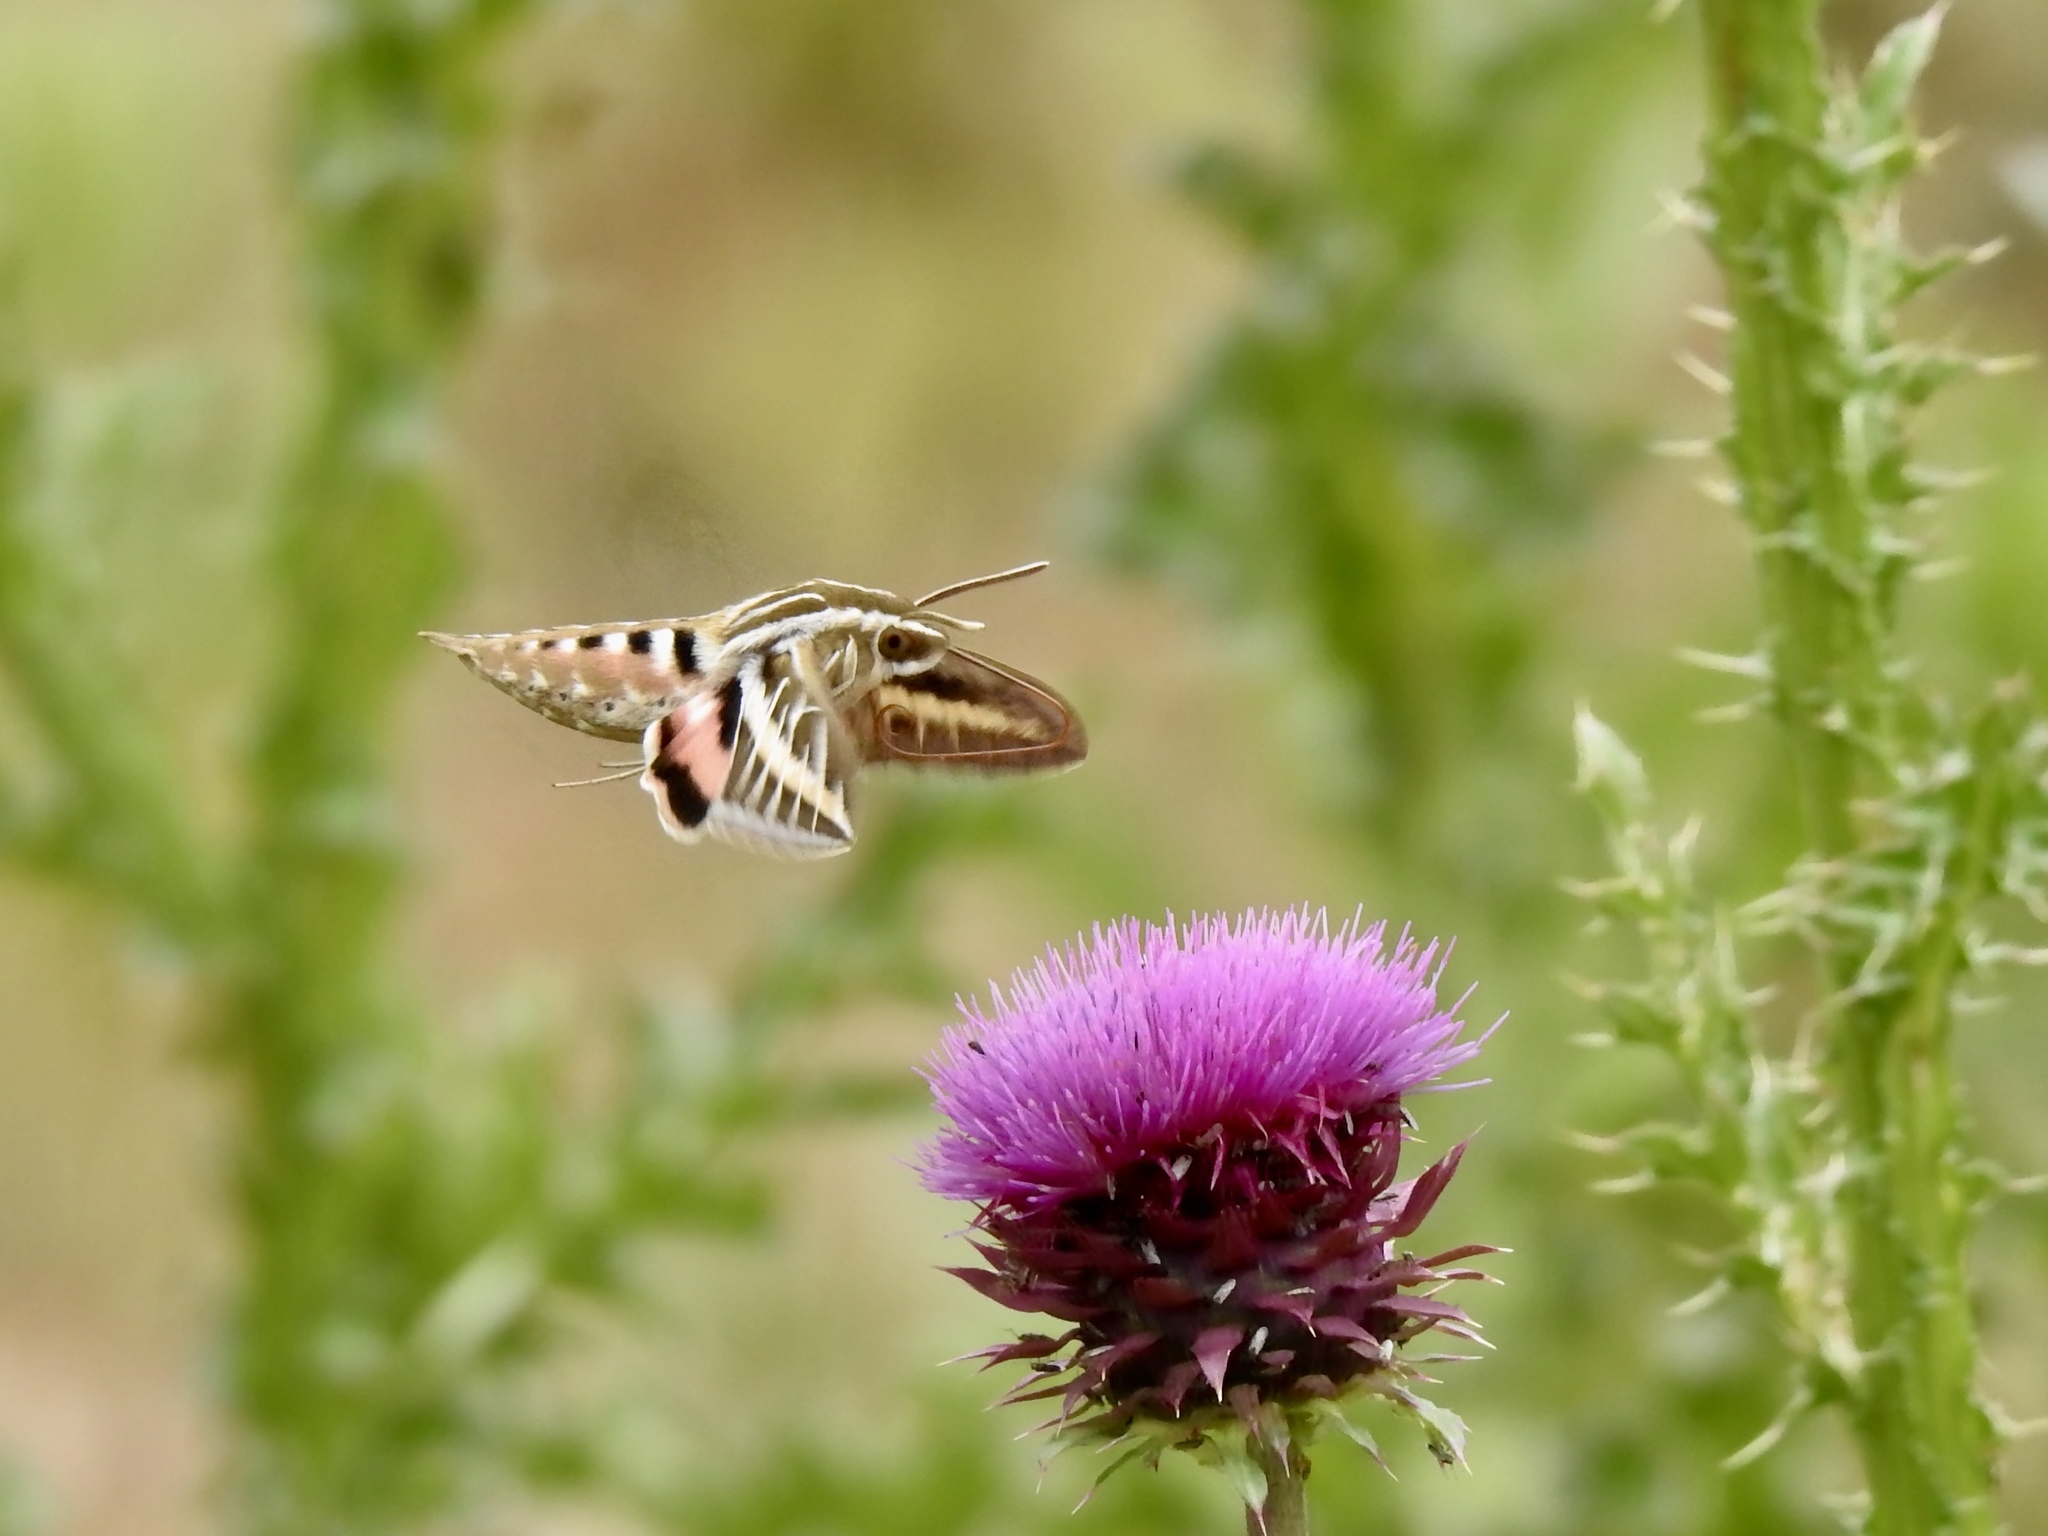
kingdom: Animalia
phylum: Arthropoda
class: Insecta
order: Lepidoptera
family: Sphingidae
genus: Hyles
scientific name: Hyles lineata
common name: White-lined sphinx
